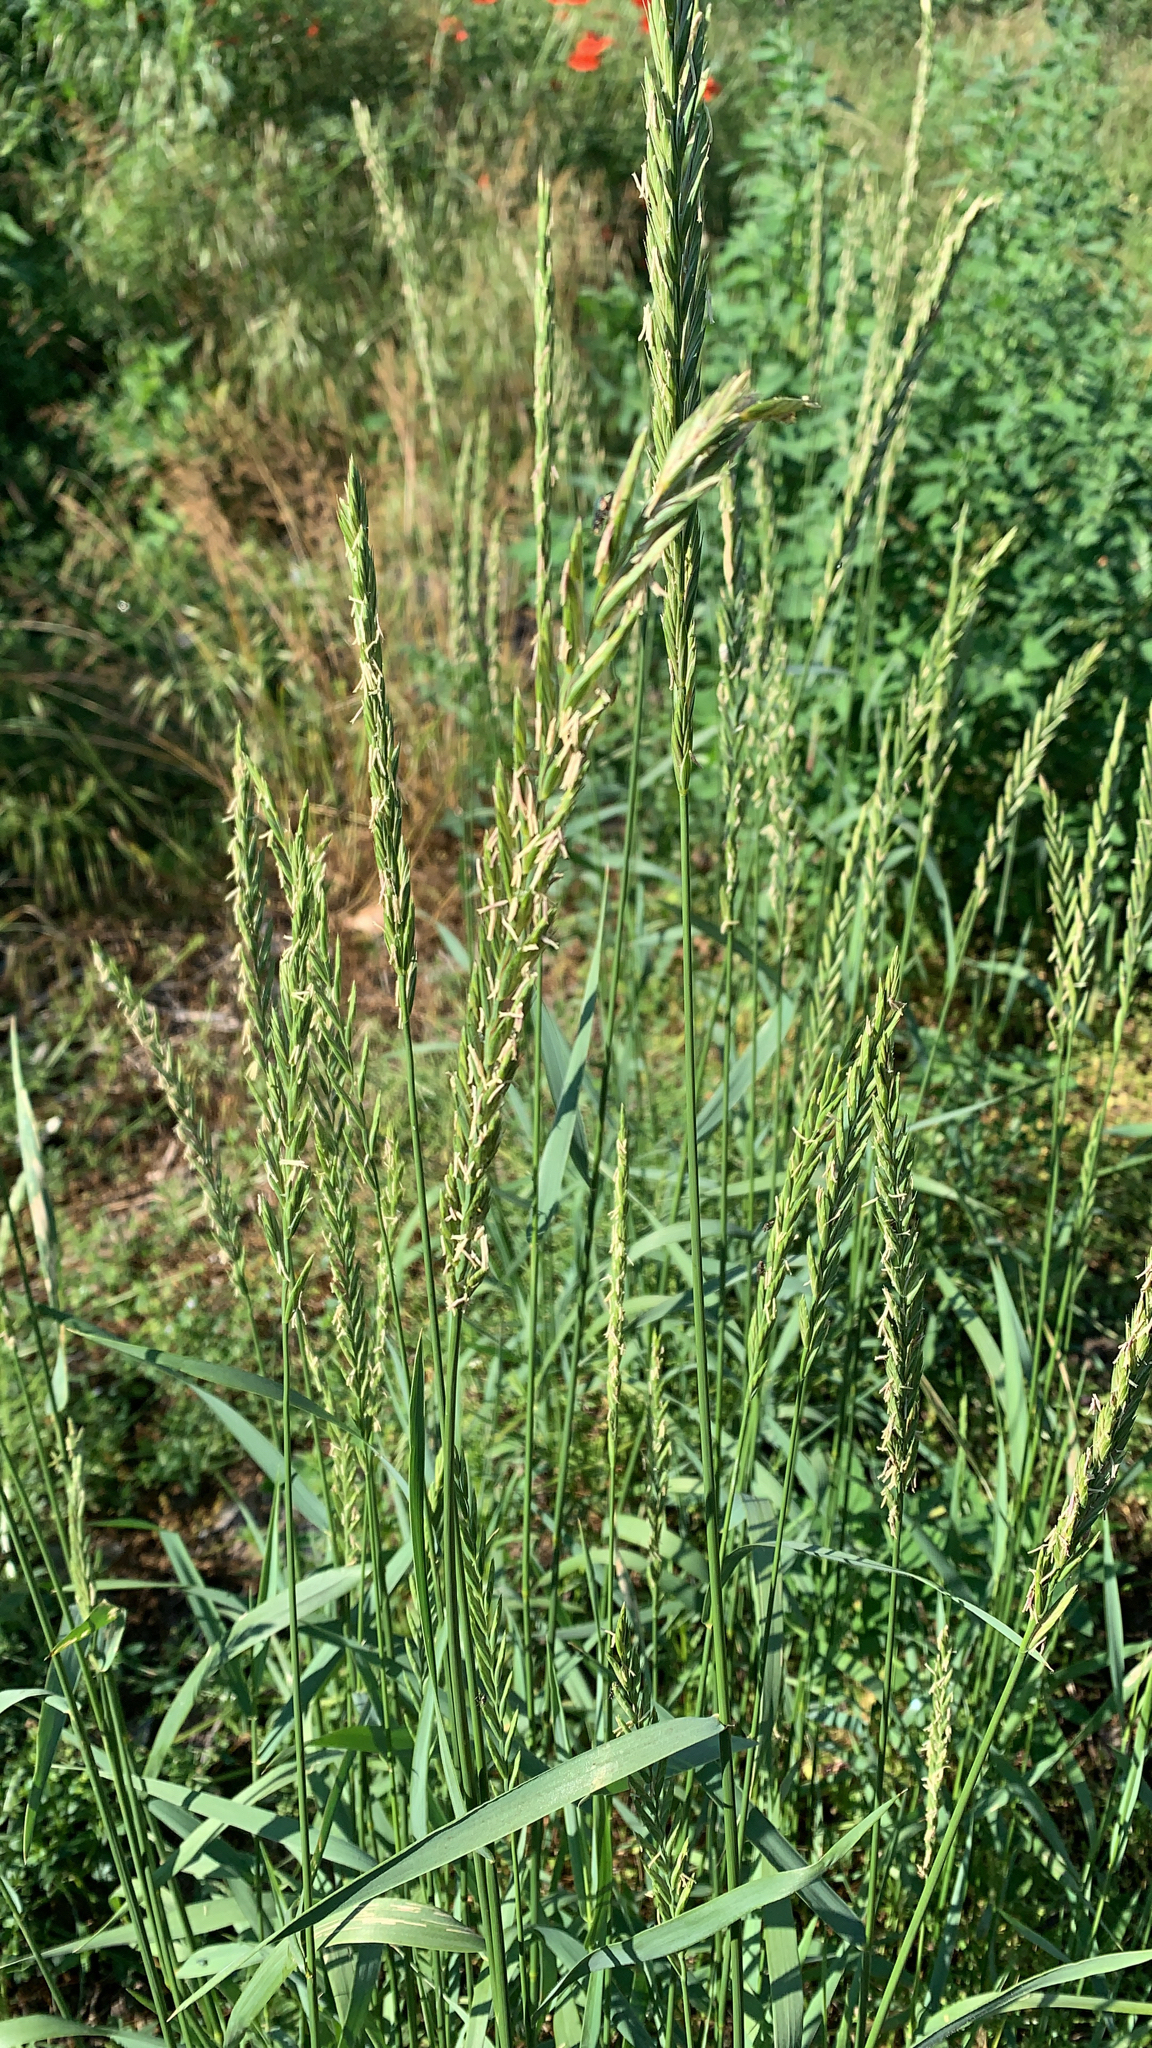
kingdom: Plantae
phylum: Tracheophyta
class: Liliopsida
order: Poales
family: Poaceae
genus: Elymus
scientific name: Elymus repens
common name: Quackgrass
